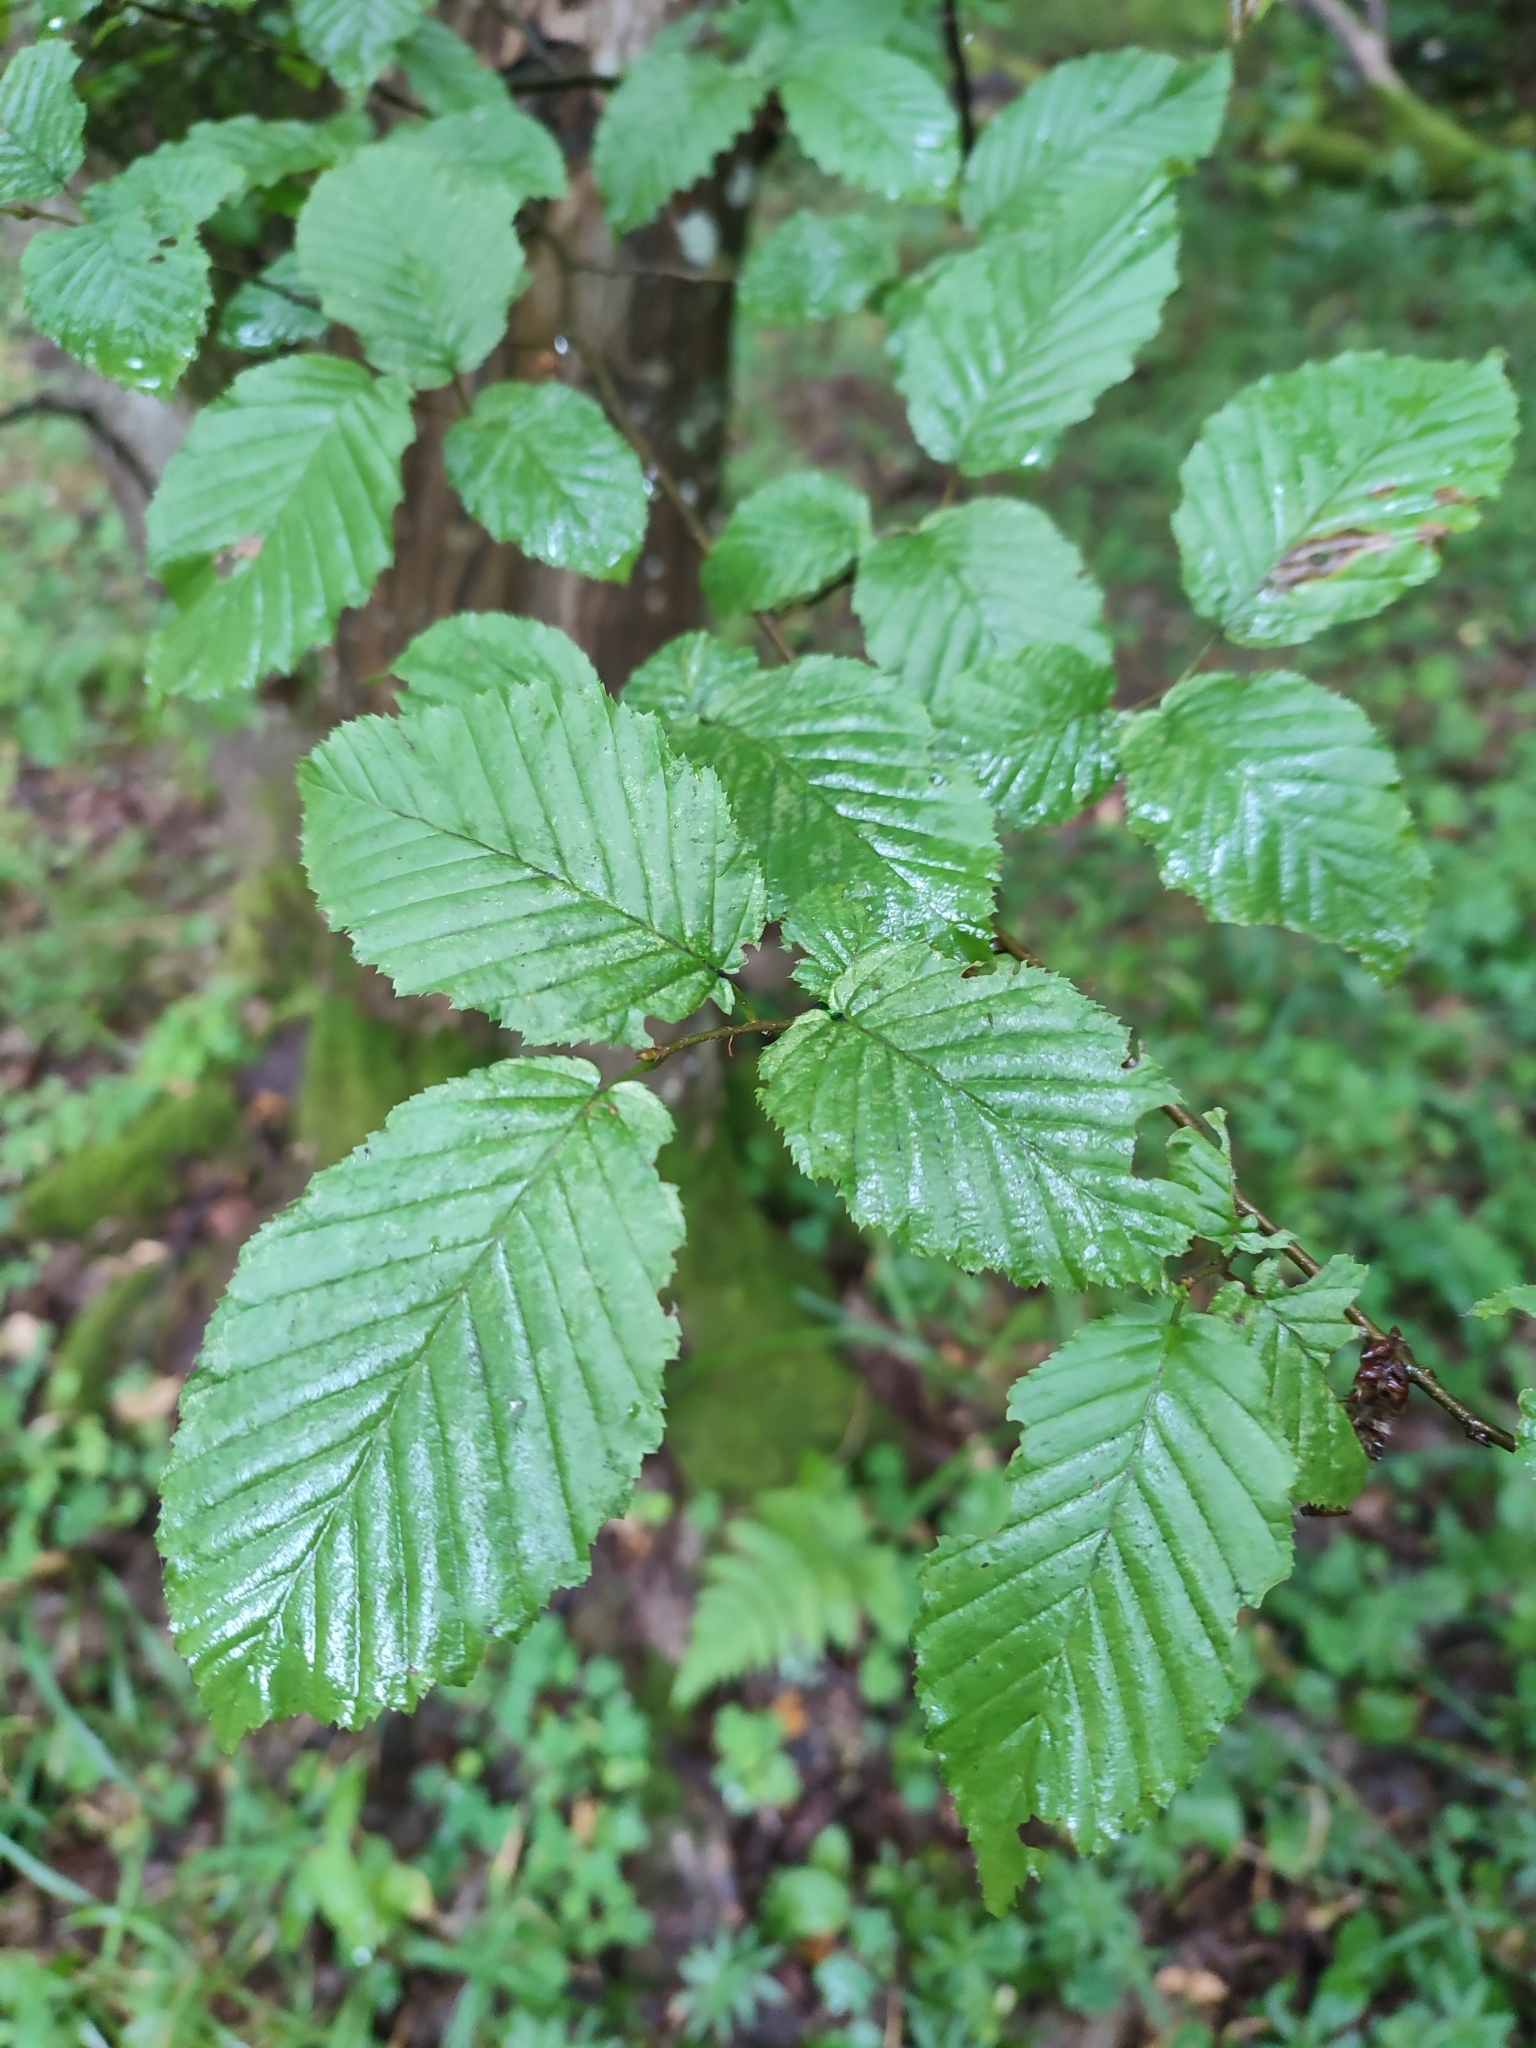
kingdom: Plantae
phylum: Tracheophyta
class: Magnoliopsida
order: Fagales
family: Betulaceae
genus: Carpinus
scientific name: Carpinus betulus
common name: Hornbeam
